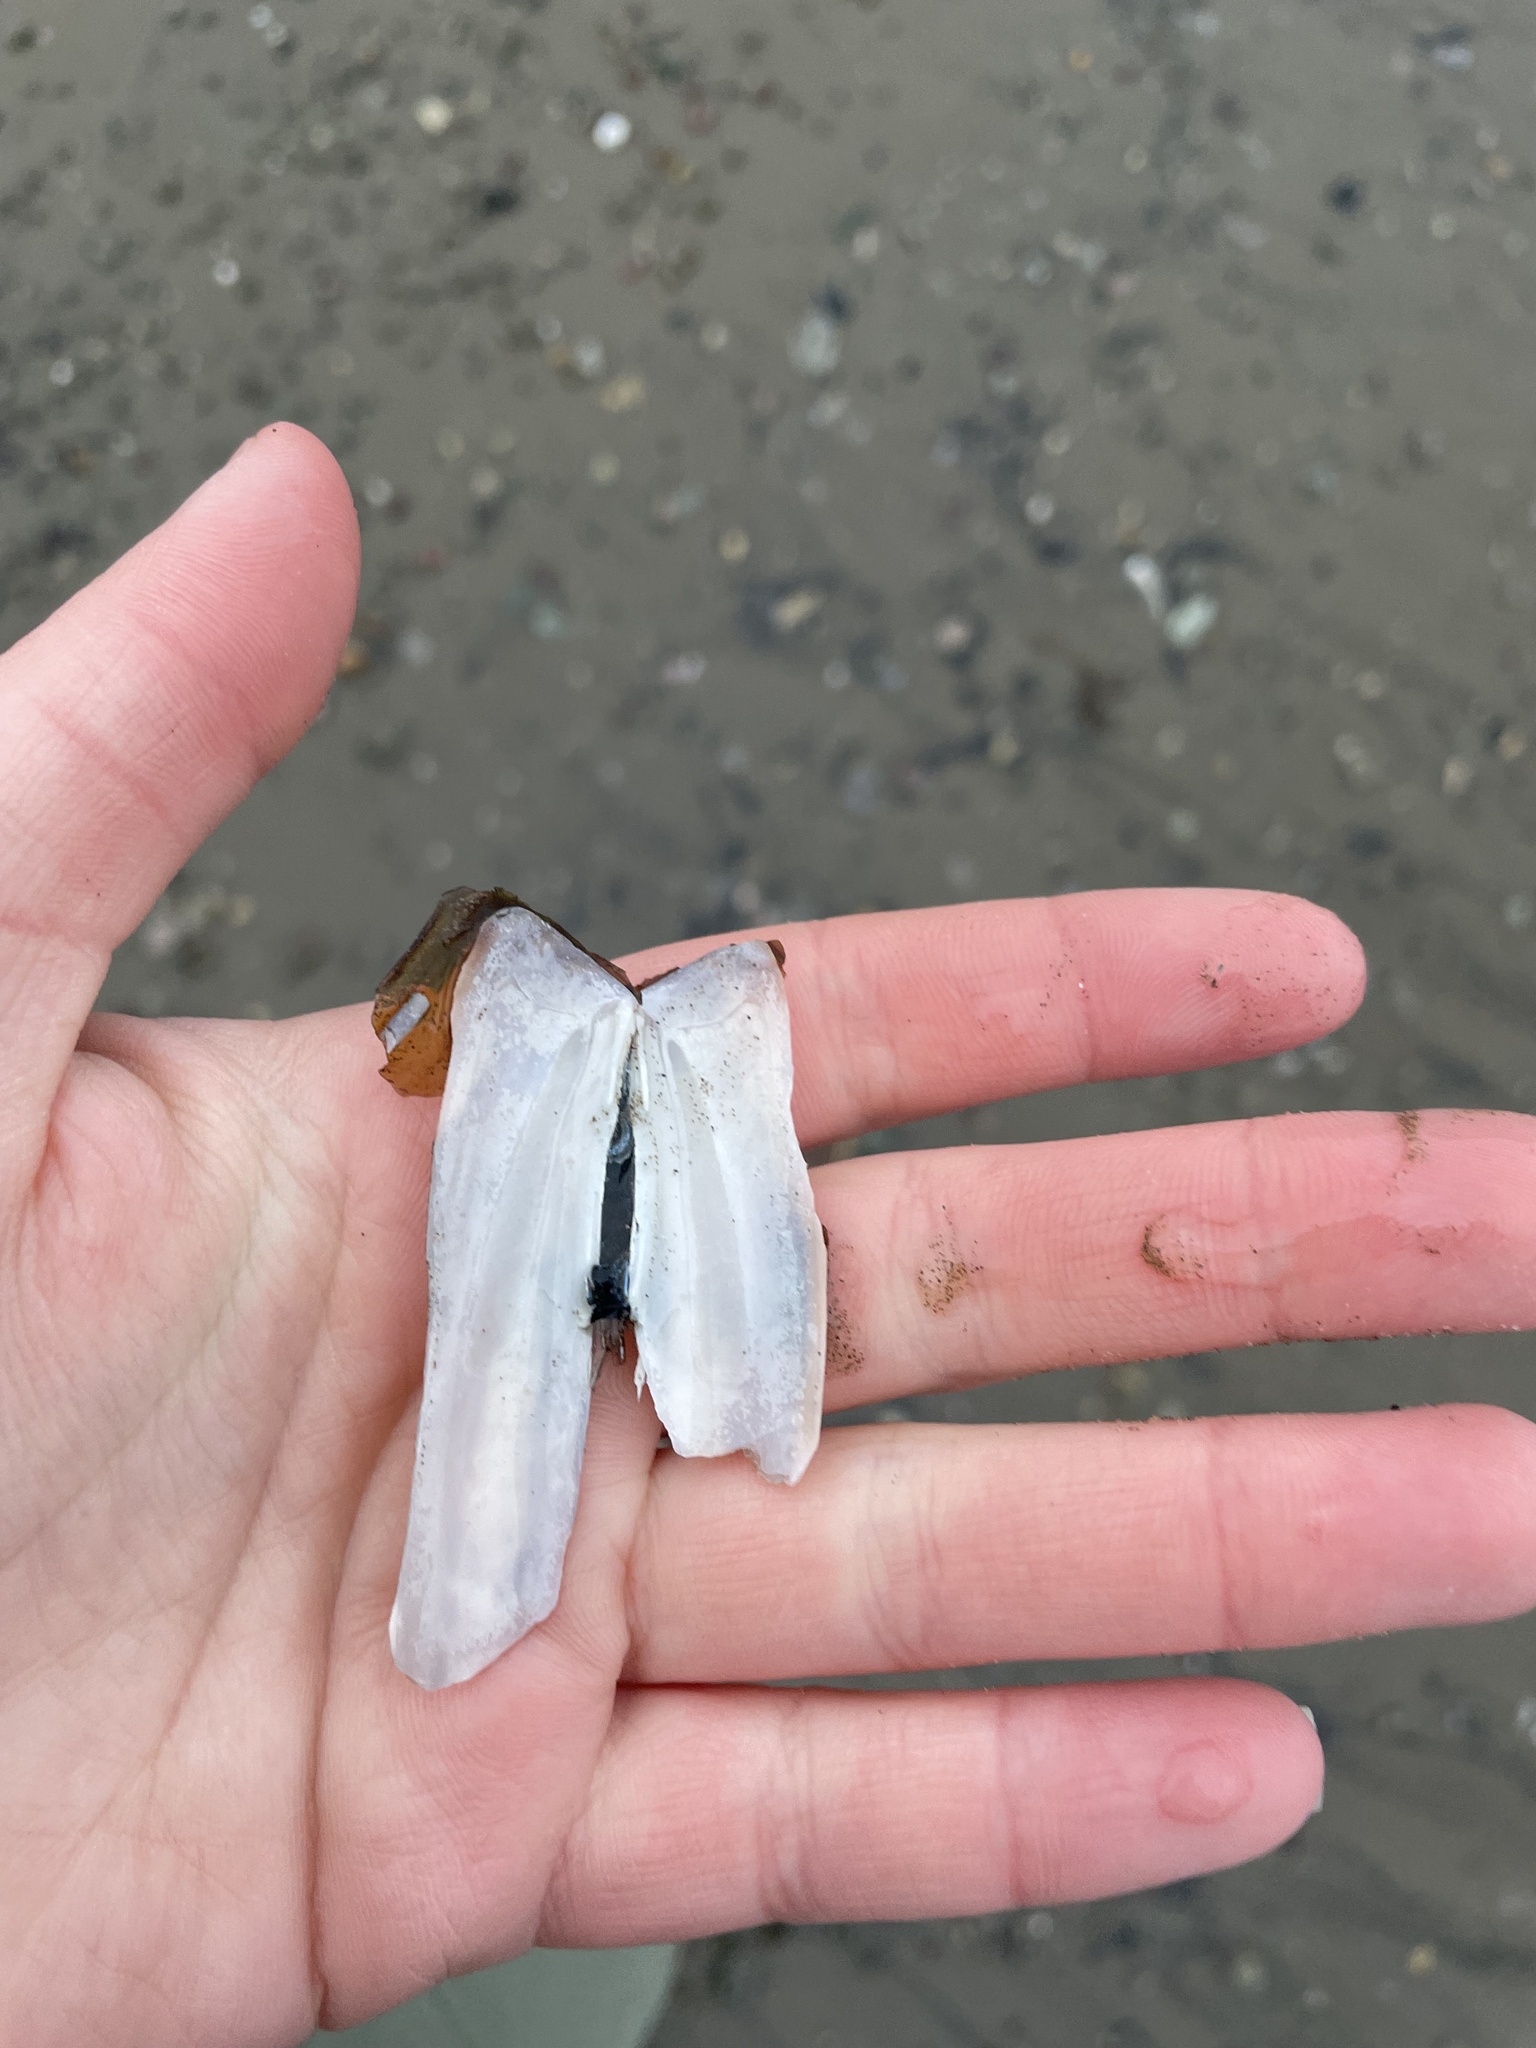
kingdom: Animalia
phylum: Mollusca
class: Bivalvia
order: Adapedonta
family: Pharidae
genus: Ensis
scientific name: Ensis leei
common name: American jack knife clam
